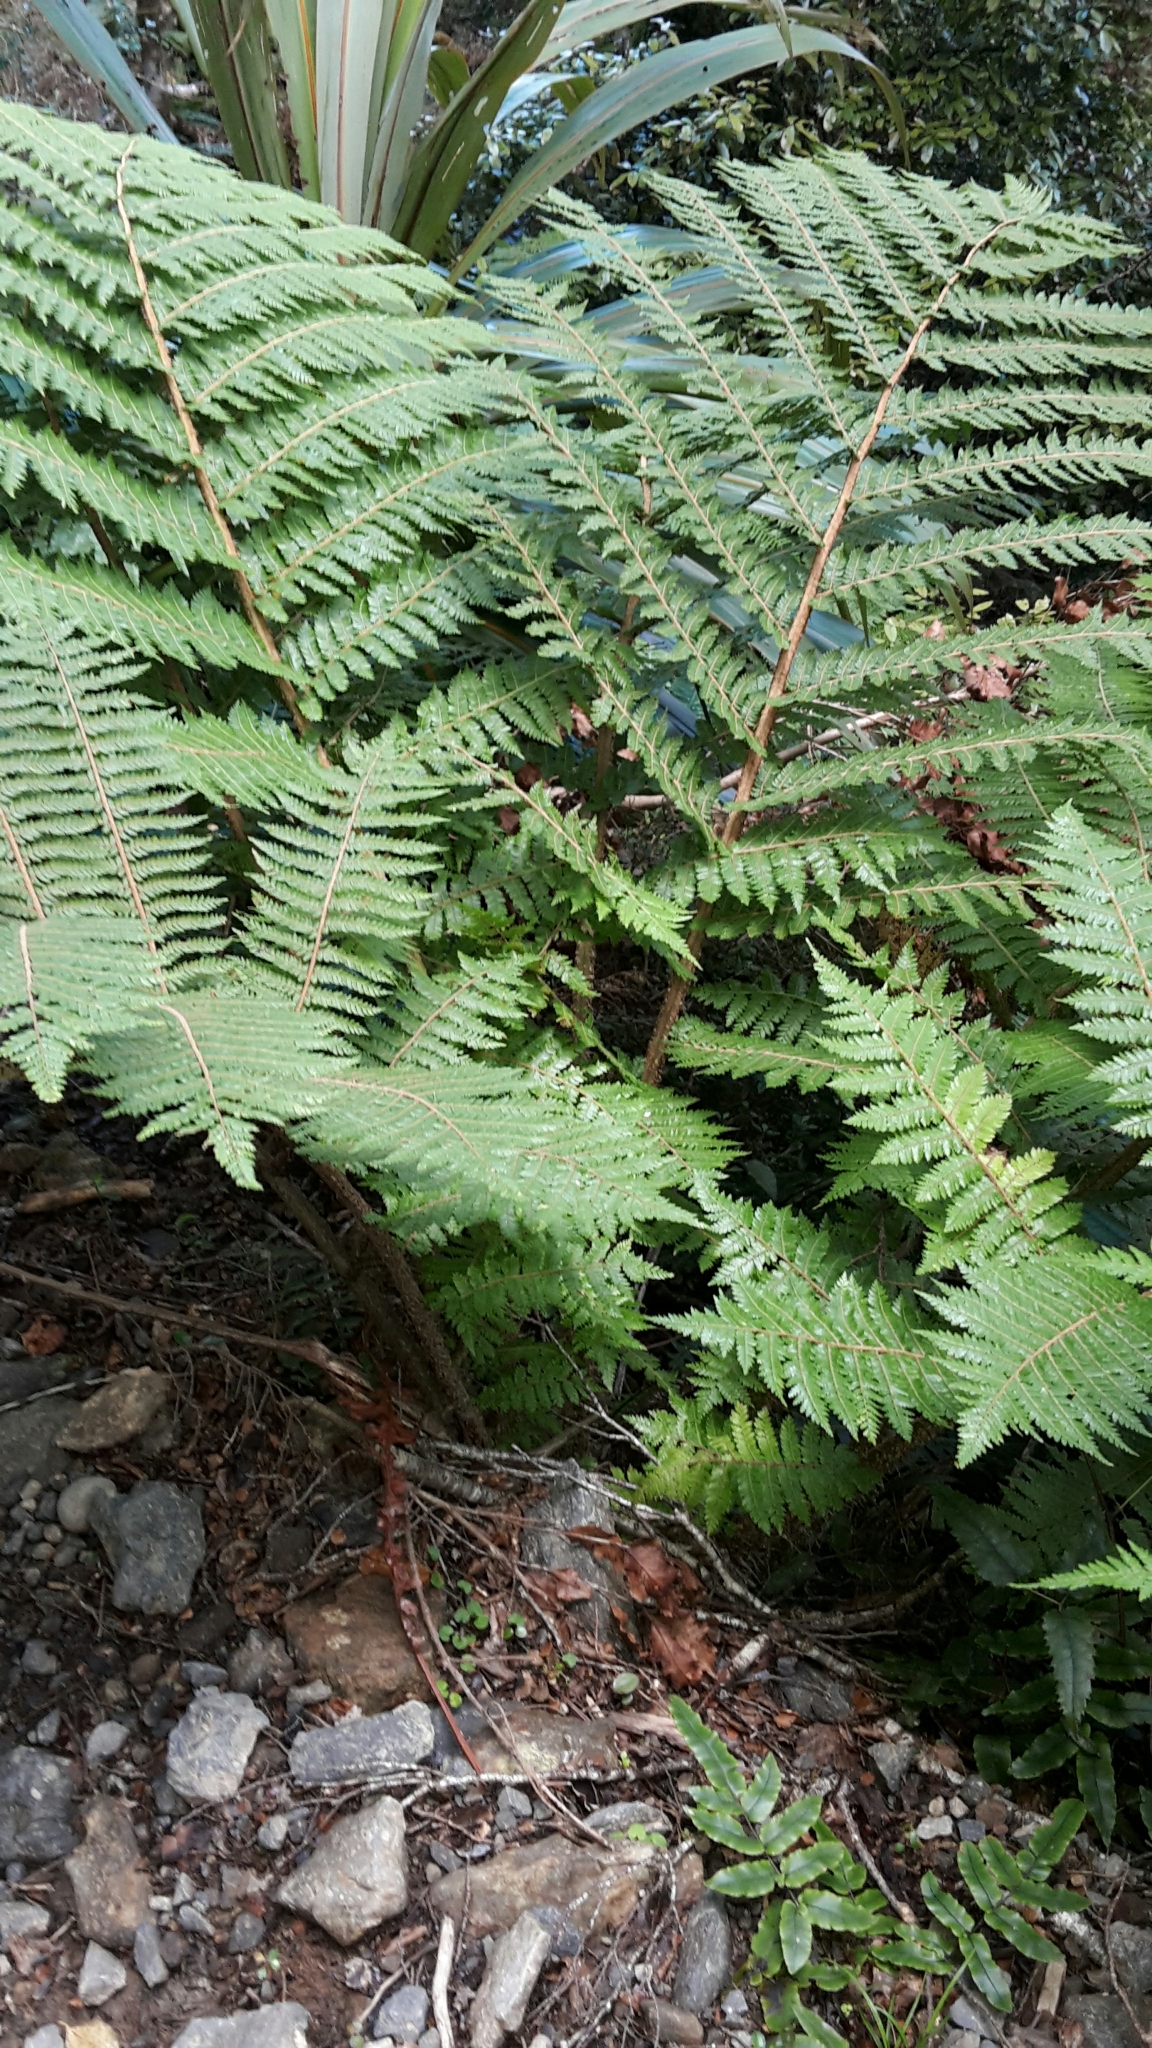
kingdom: Plantae
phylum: Tracheophyta
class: Polypodiopsida
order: Cyatheales
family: Cyatheaceae
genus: Alsophila
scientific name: Alsophila colensoi
